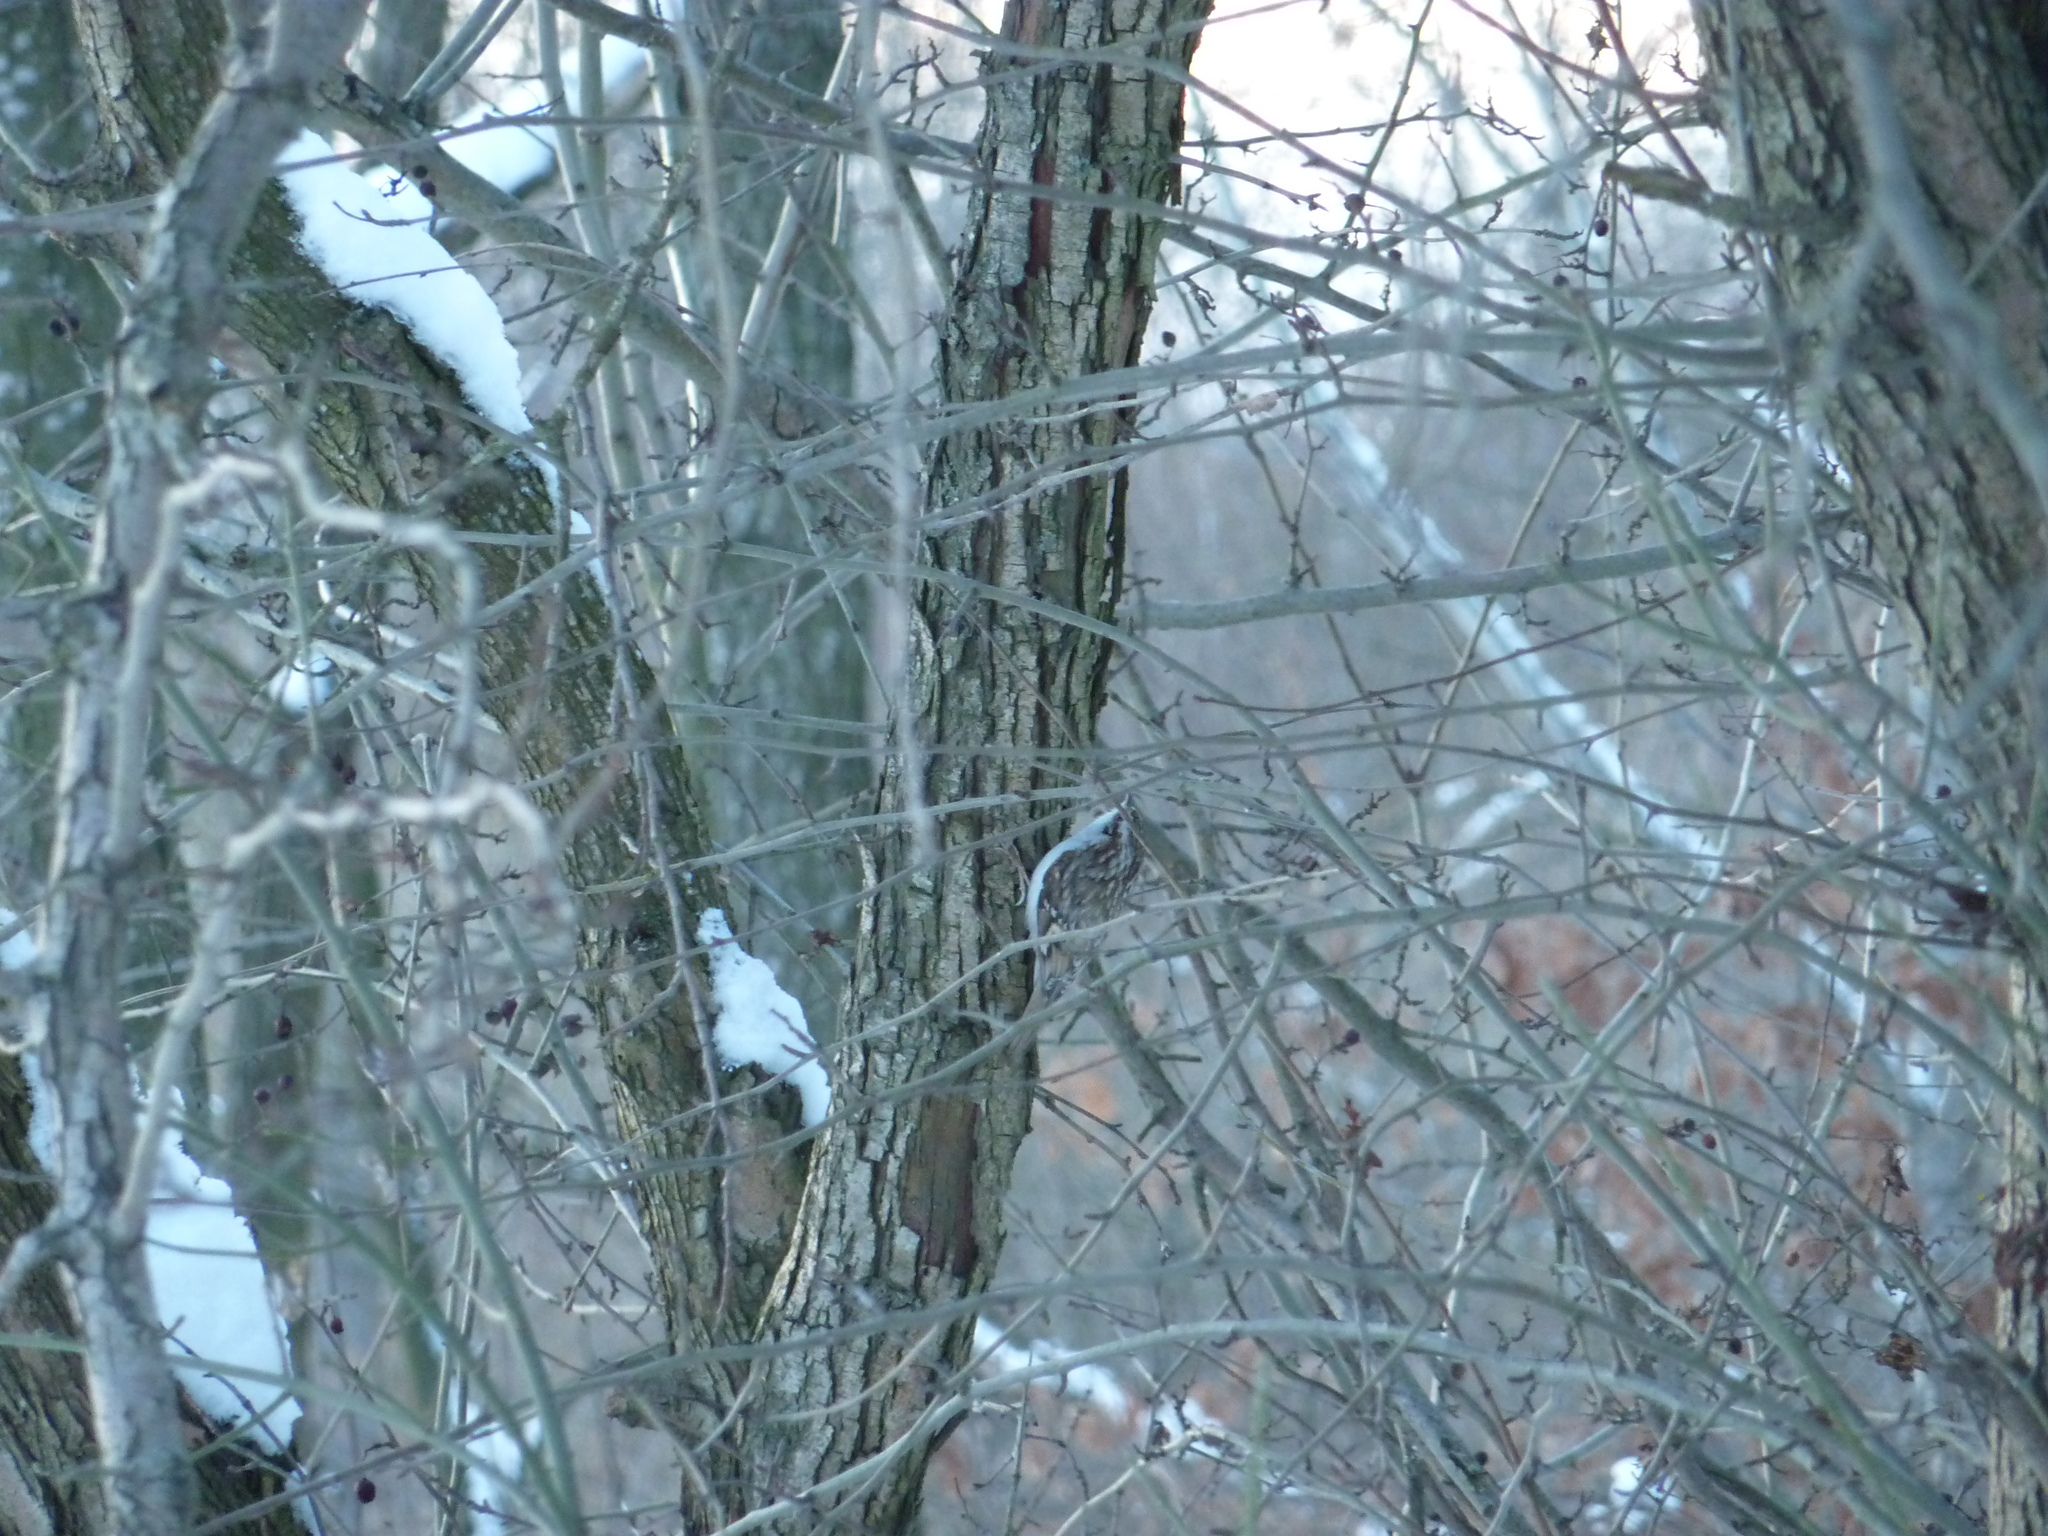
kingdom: Animalia
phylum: Chordata
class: Aves
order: Passeriformes
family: Certhiidae
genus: Certhia
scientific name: Certhia familiaris
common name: Eurasian treecreeper
